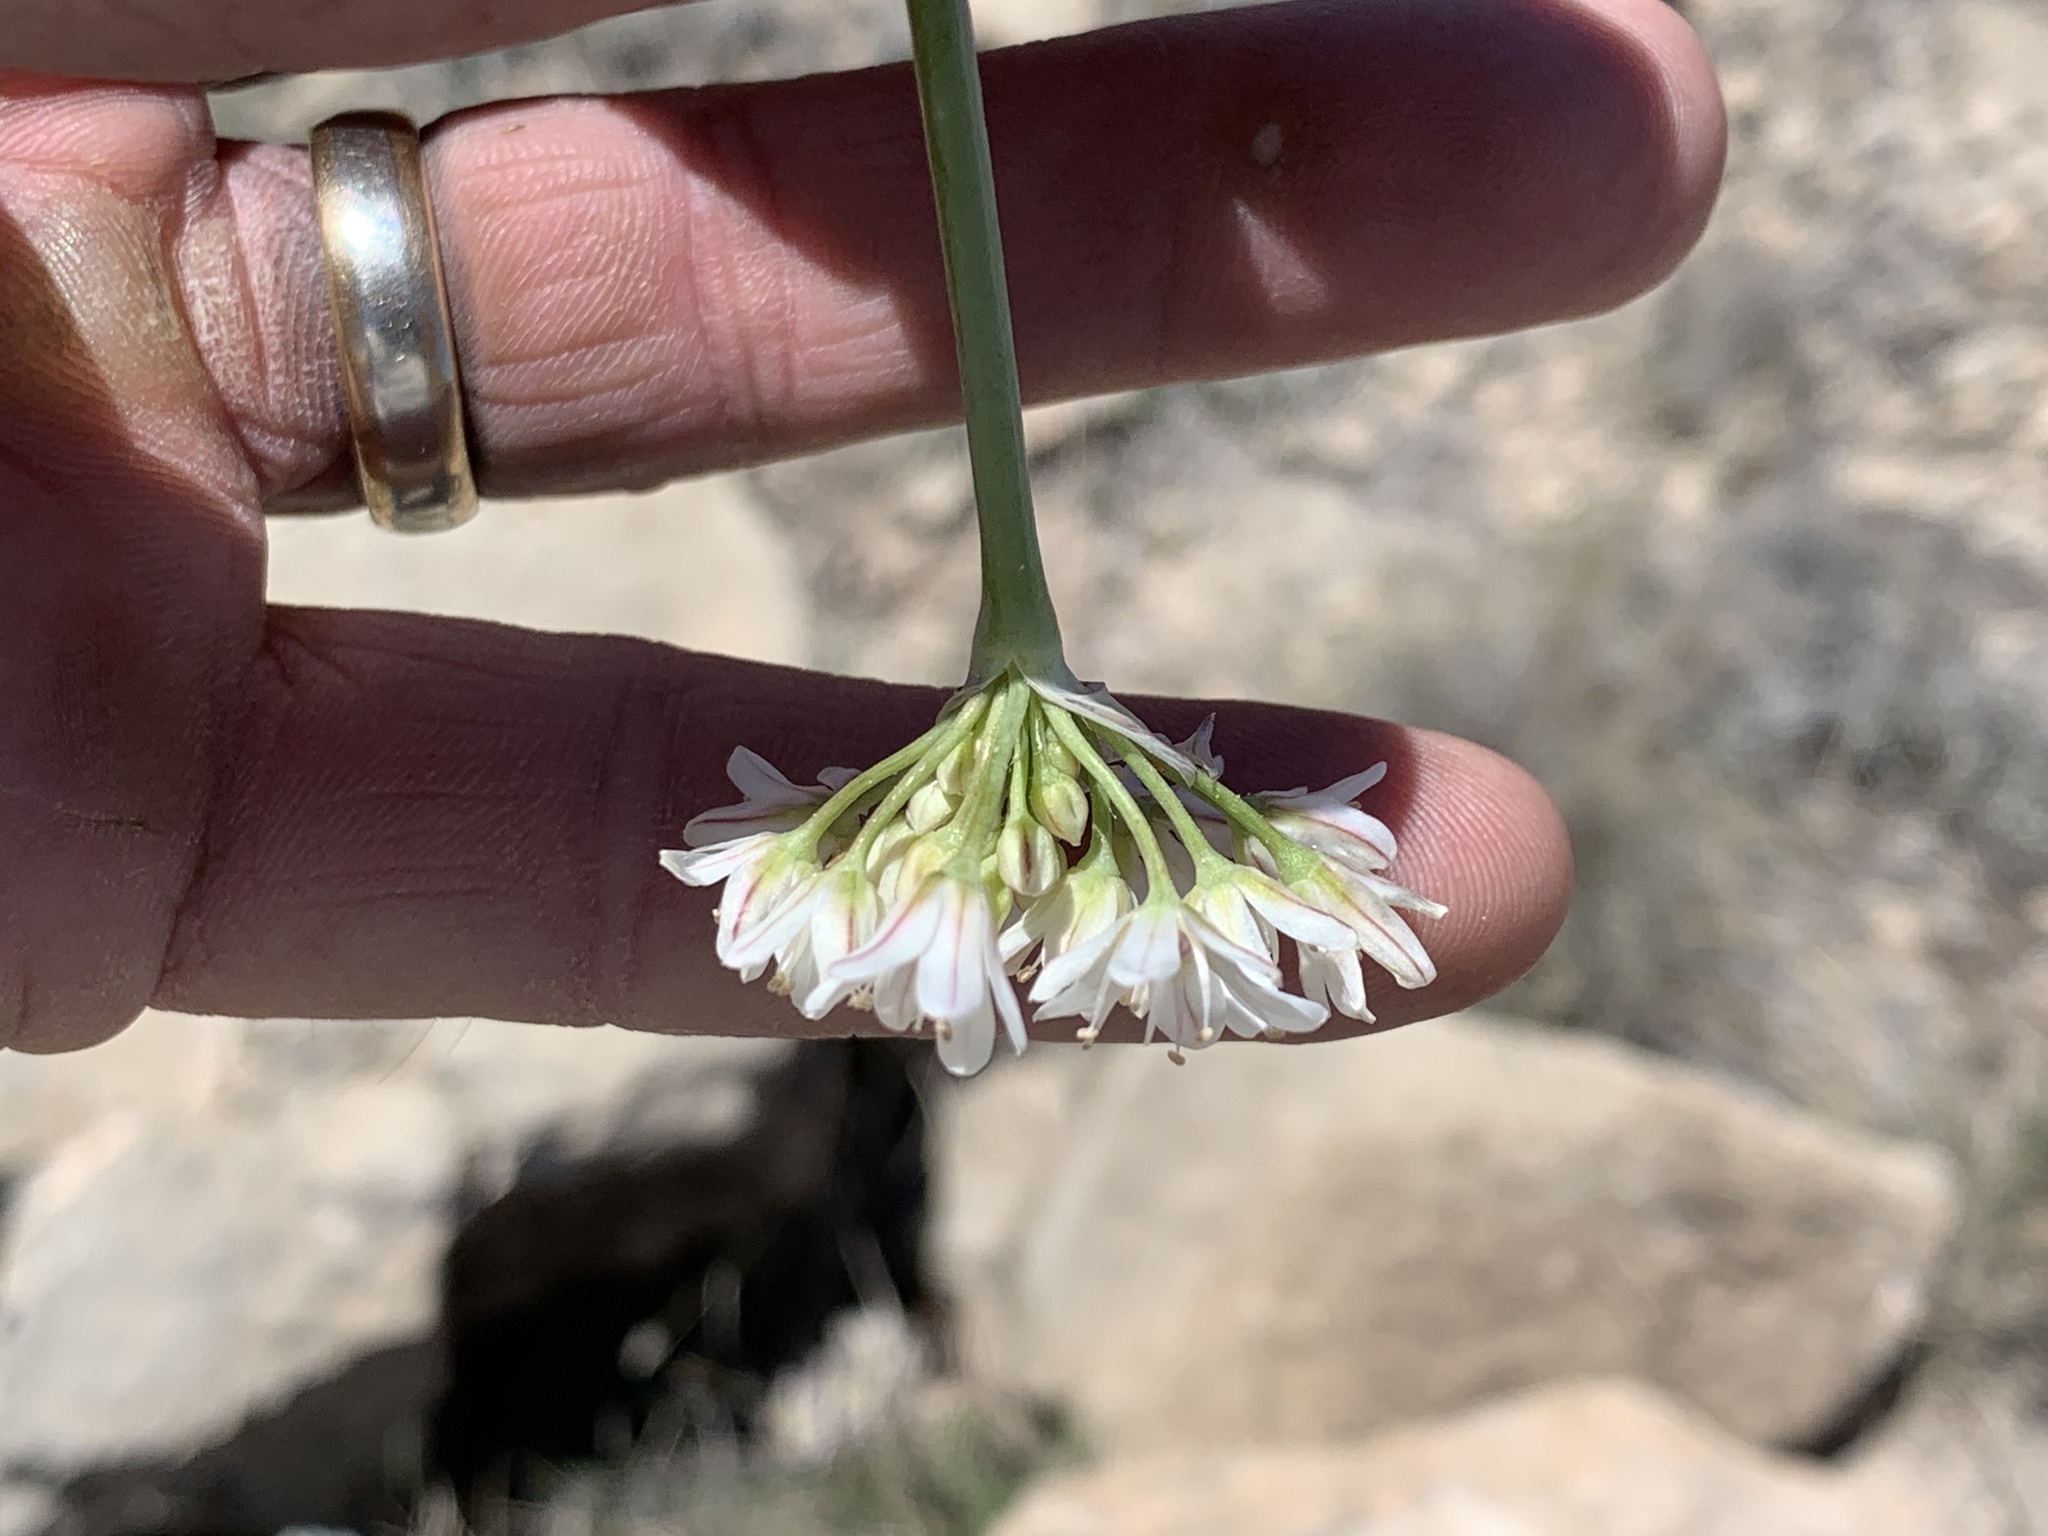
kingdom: Plantae
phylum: Tracheophyta
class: Liliopsida
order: Asparagales
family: Amaryllidaceae
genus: Allium
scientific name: Allium drummondii
